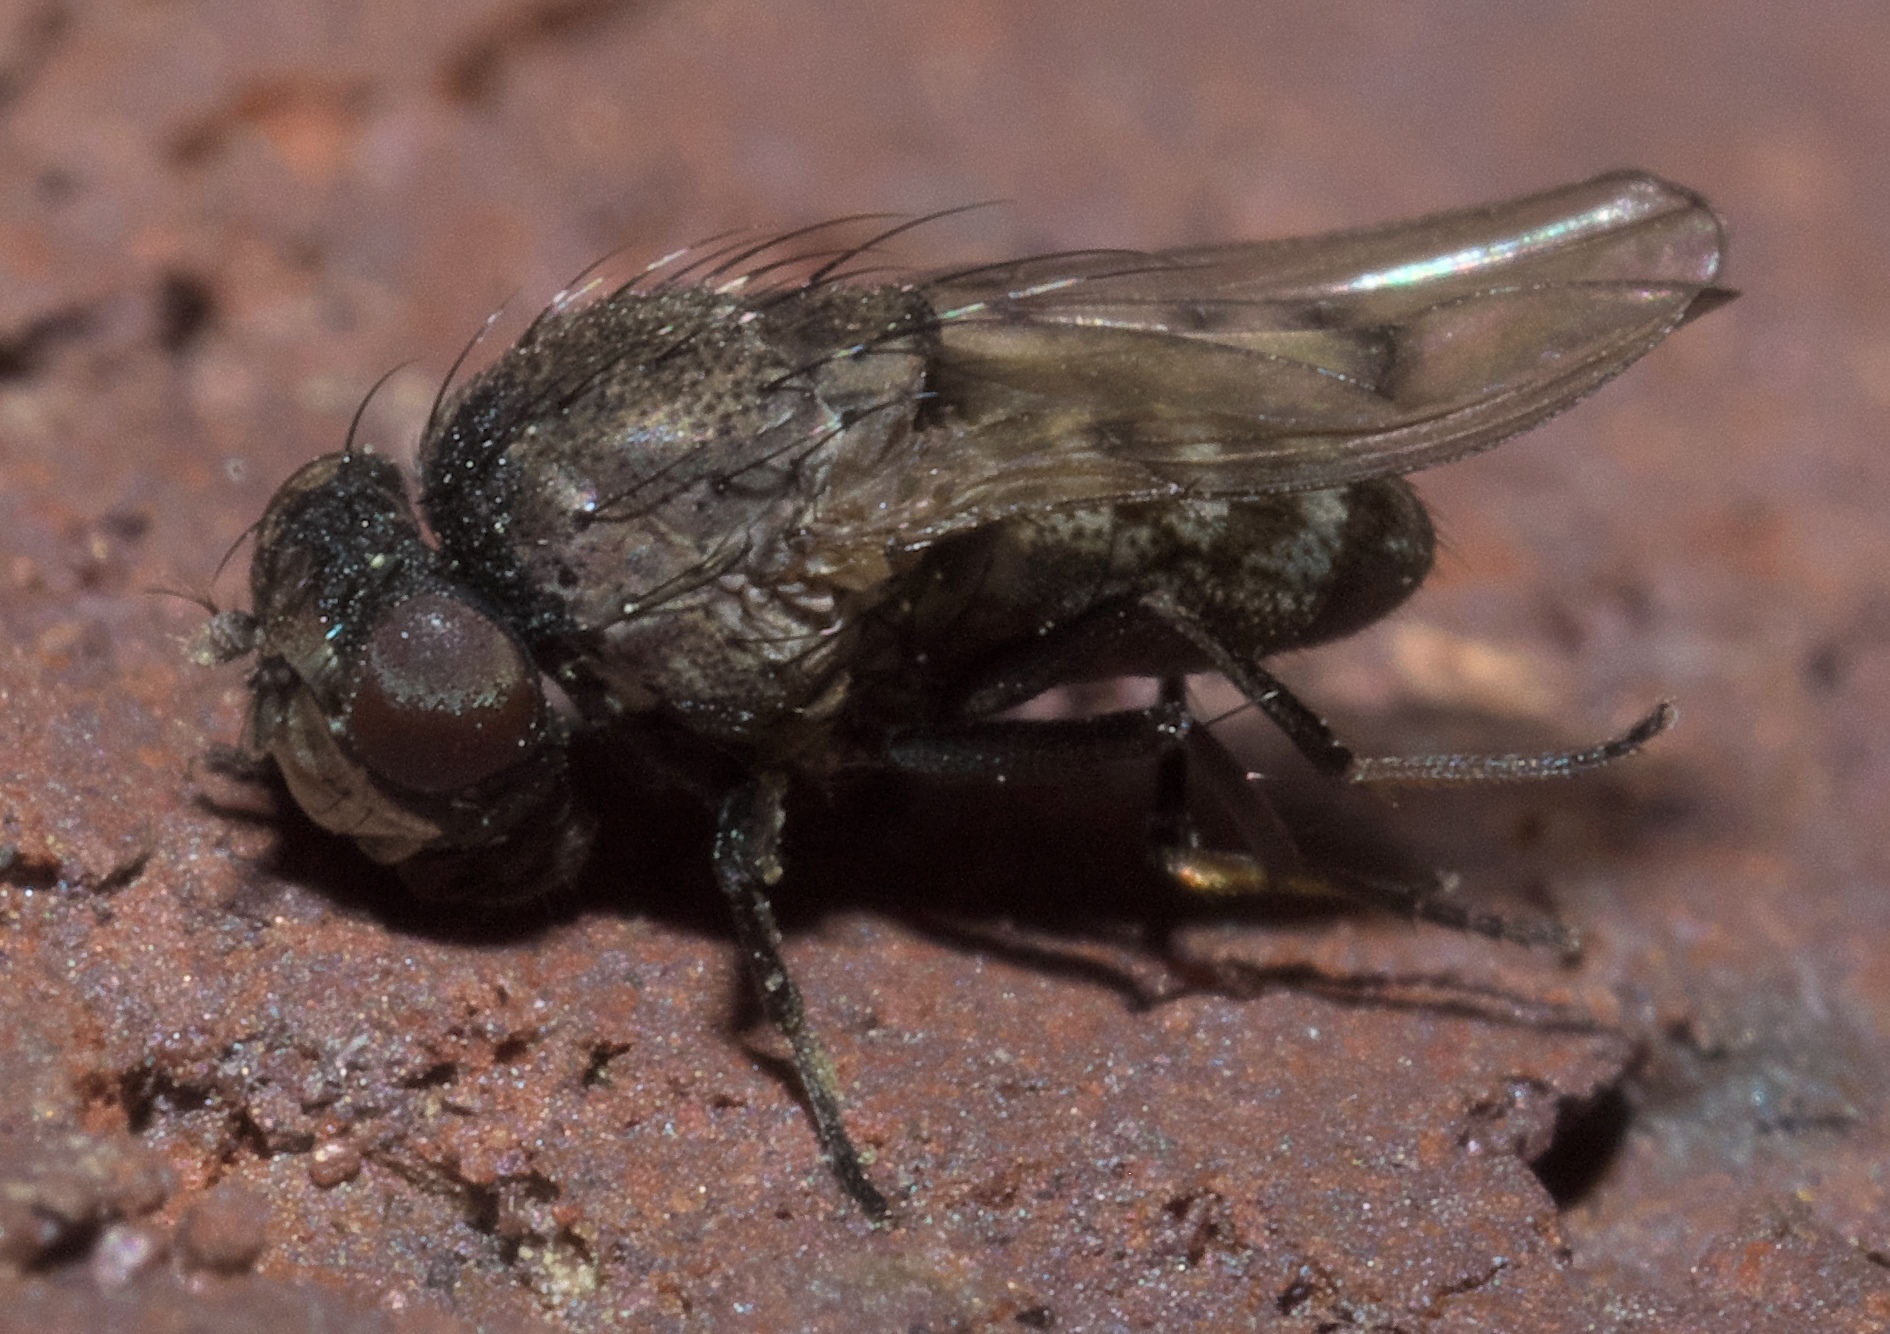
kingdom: Animalia
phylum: Arthropoda
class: Insecta
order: Diptera
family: Ephydridae
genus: Paralimna
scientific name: Paralimna punctipennis
